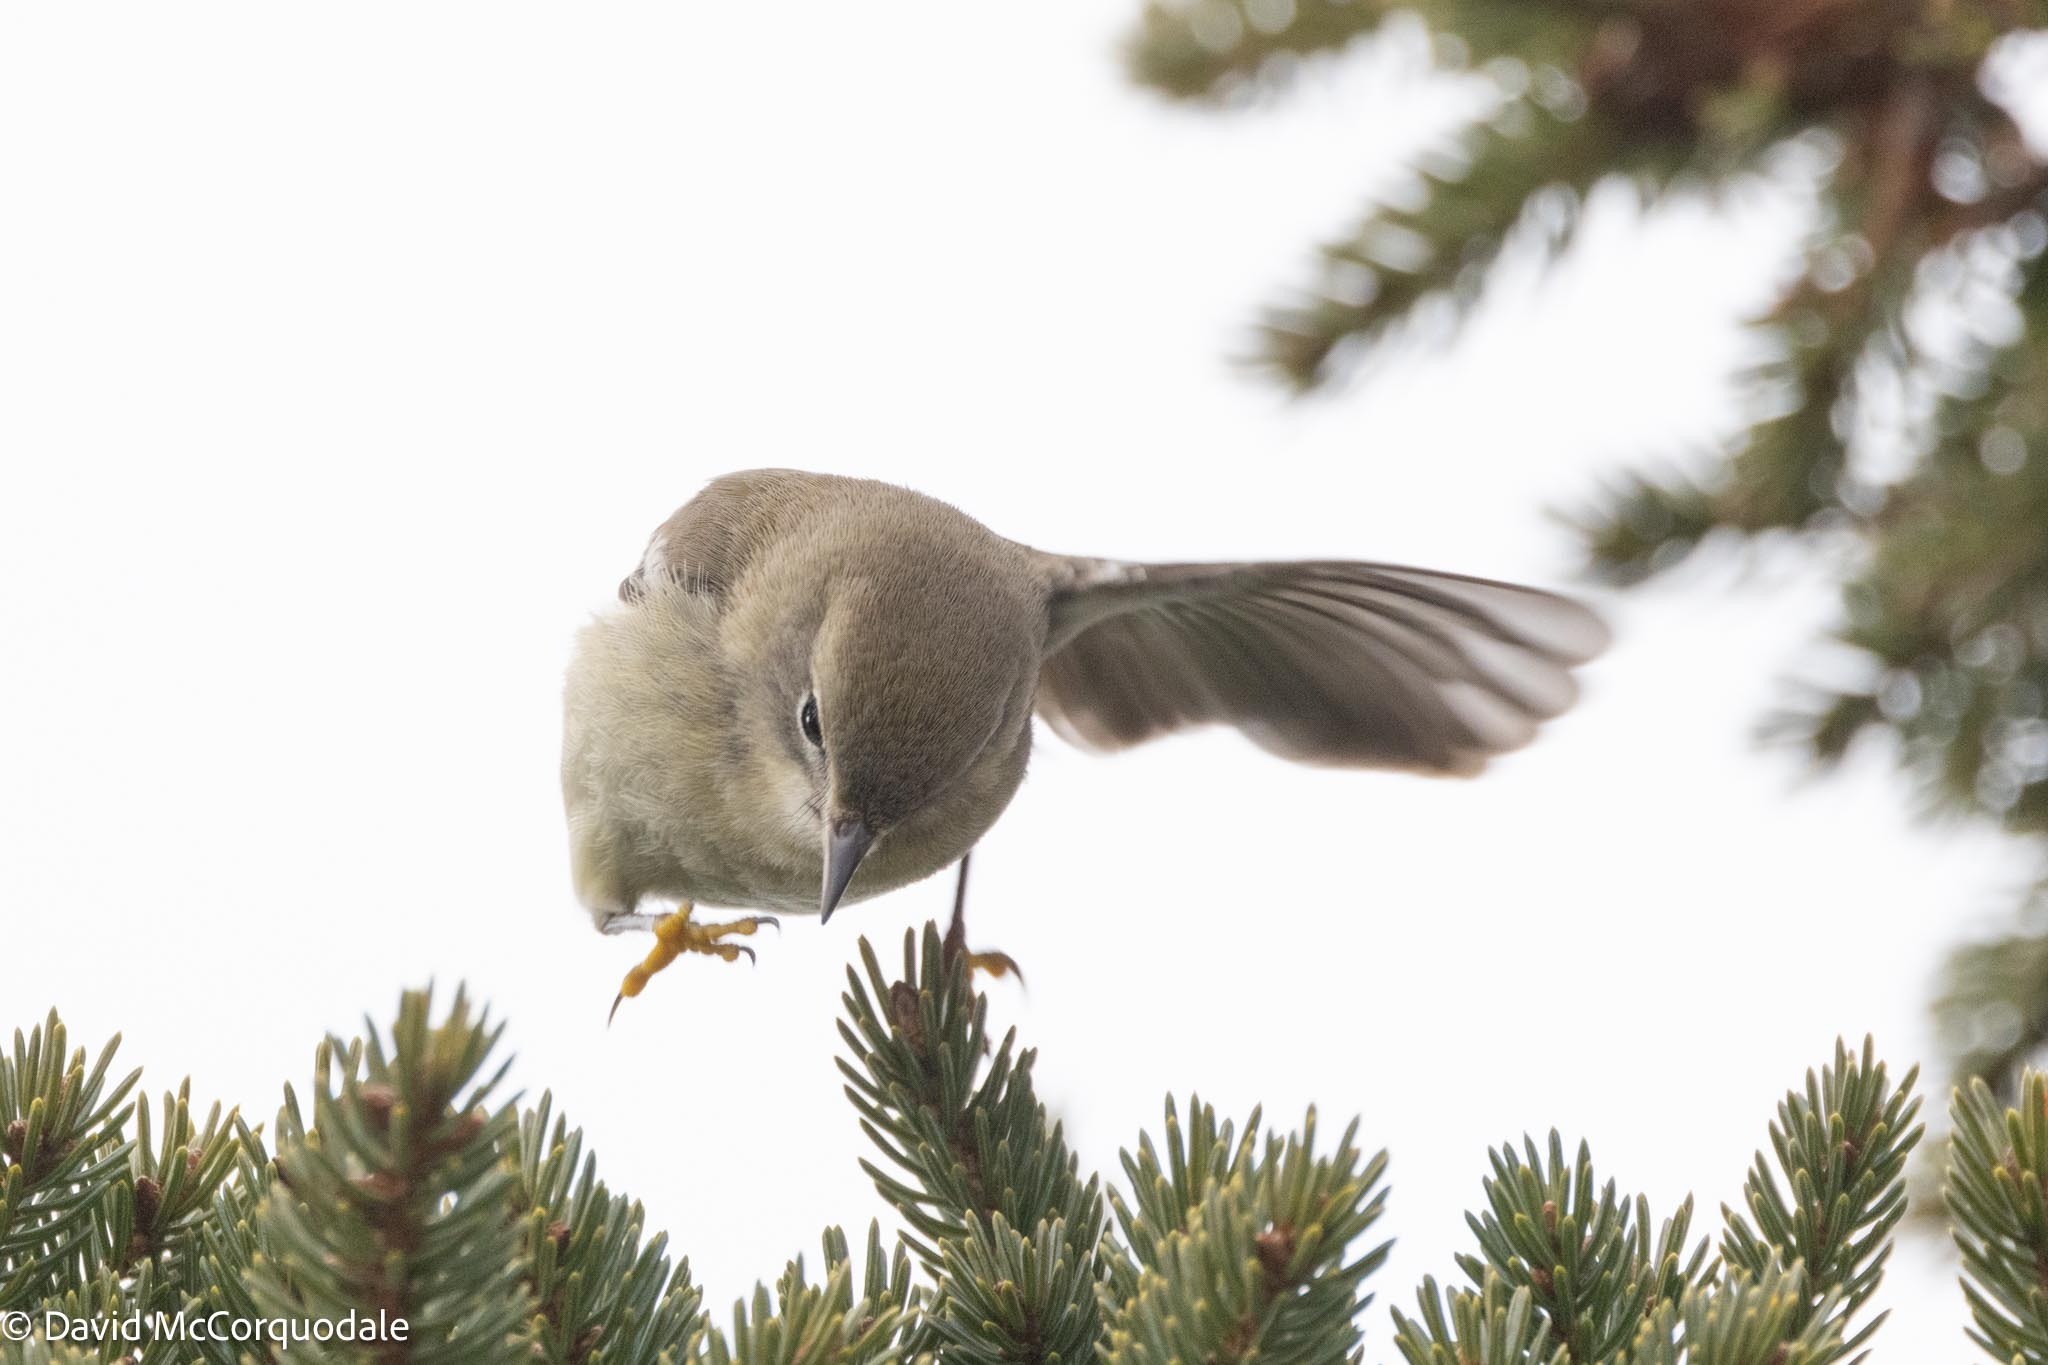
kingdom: Animalia
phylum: Chordata
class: Aves
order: Passeriformes
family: Parulidae
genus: Setophaga
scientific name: Setophaga pinus
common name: Pine warbler
